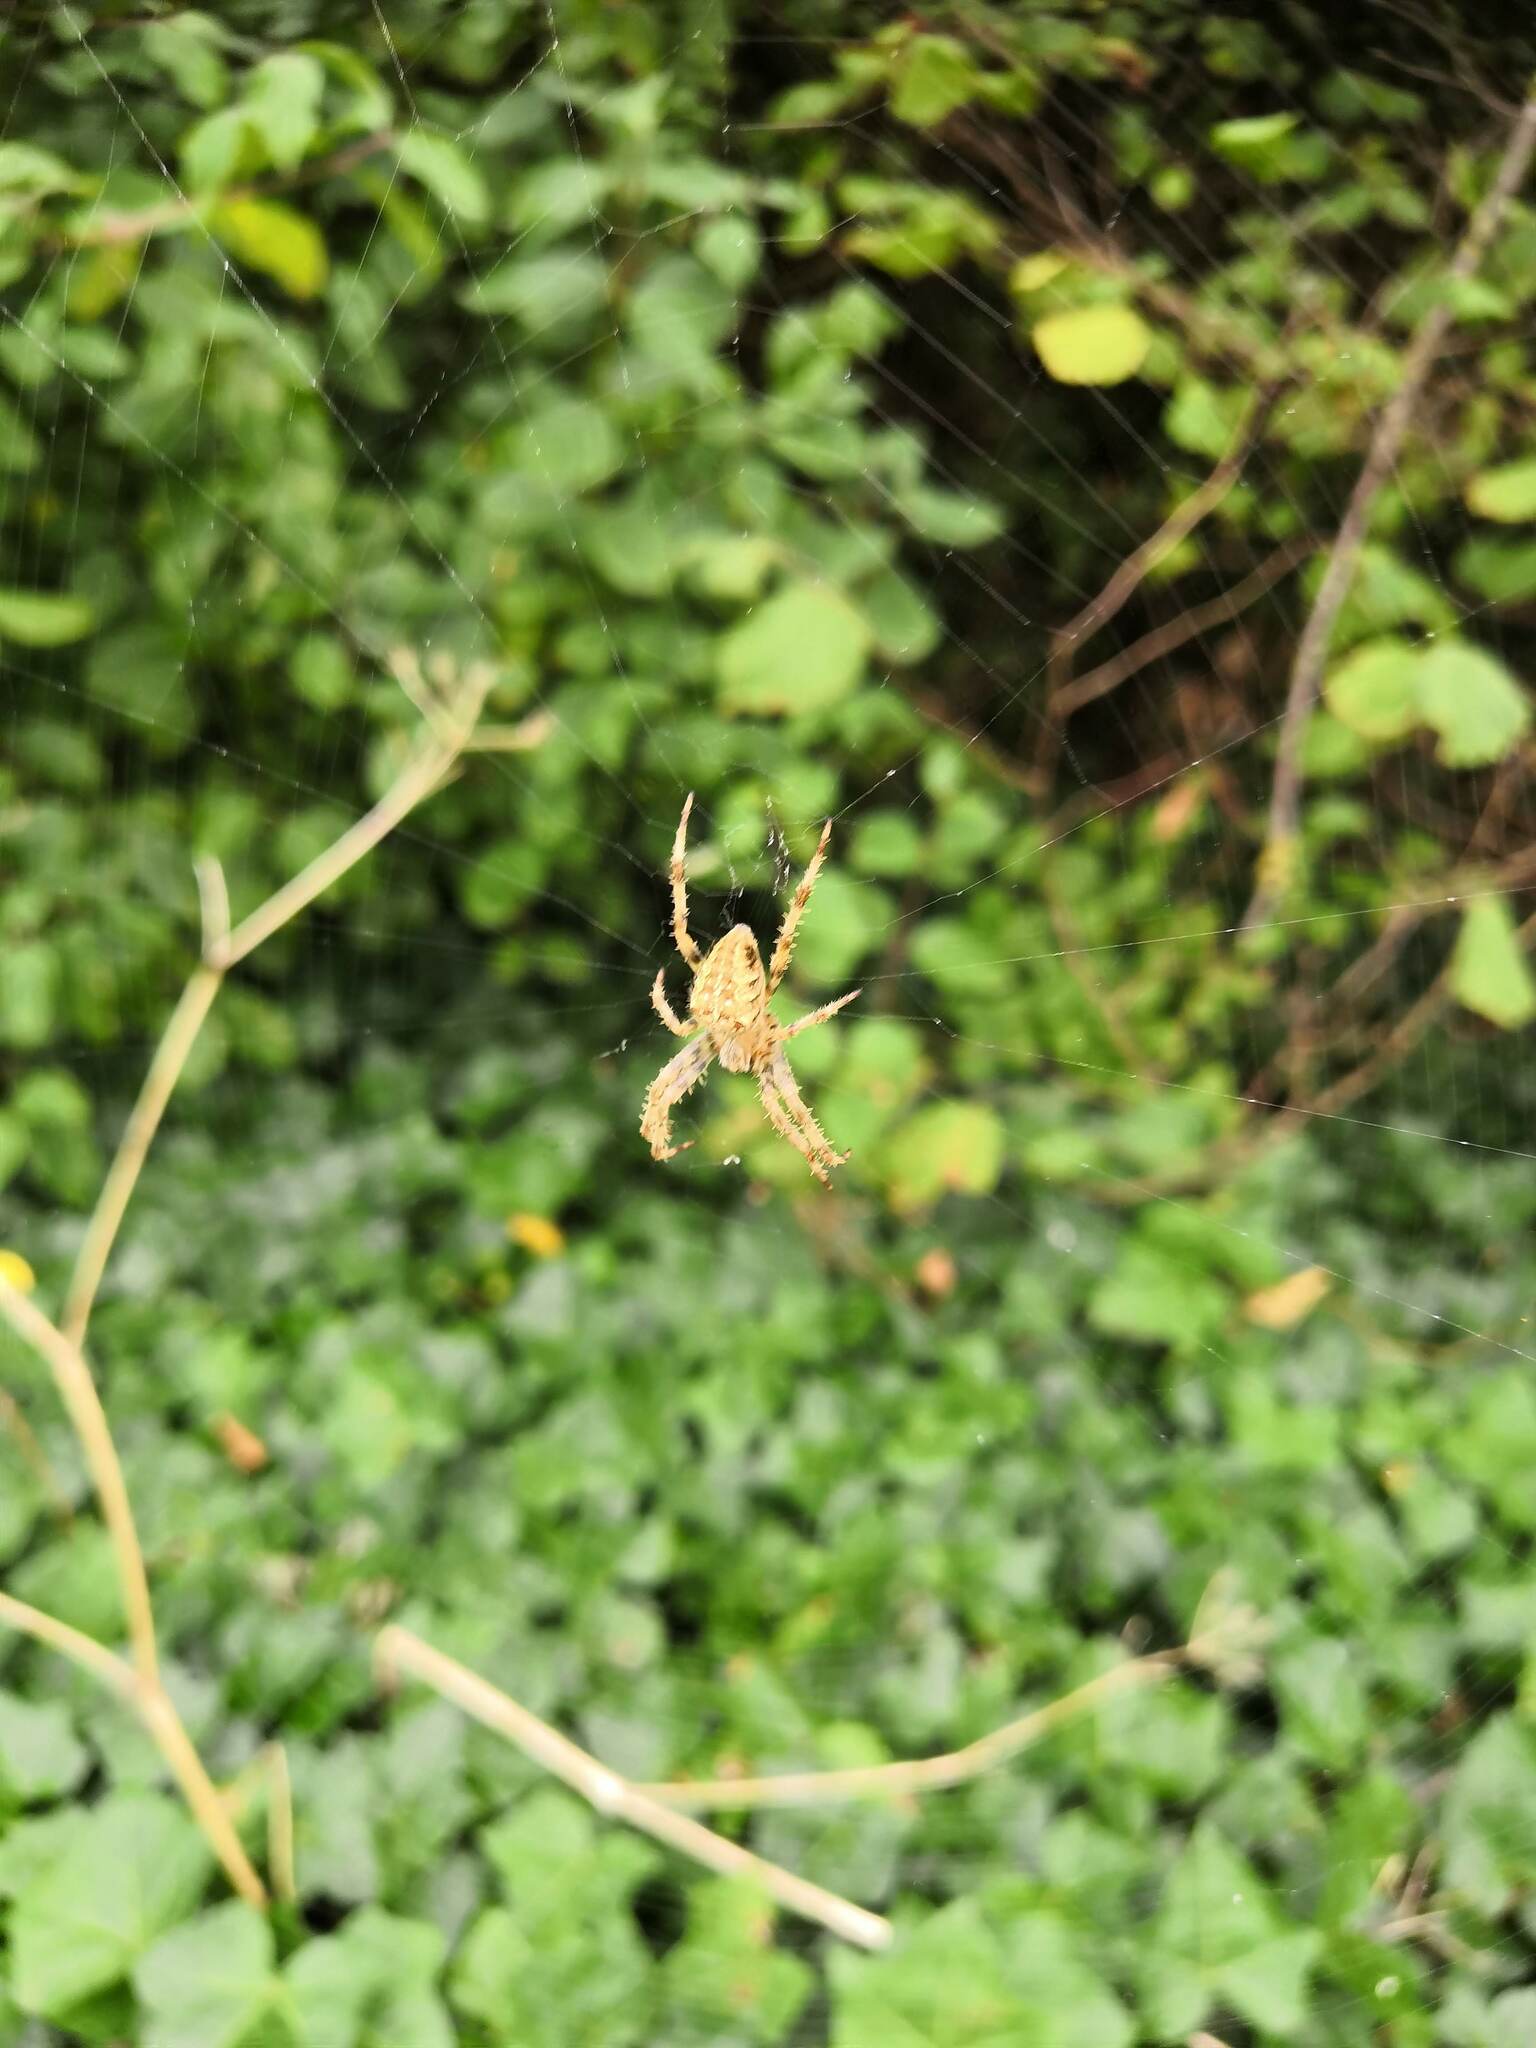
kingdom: Animalia
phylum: Arthropoda
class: Arachnida
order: Araneae
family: Araneidae
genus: Araneus
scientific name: Araneus diadematus
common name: Cross orbweaver
